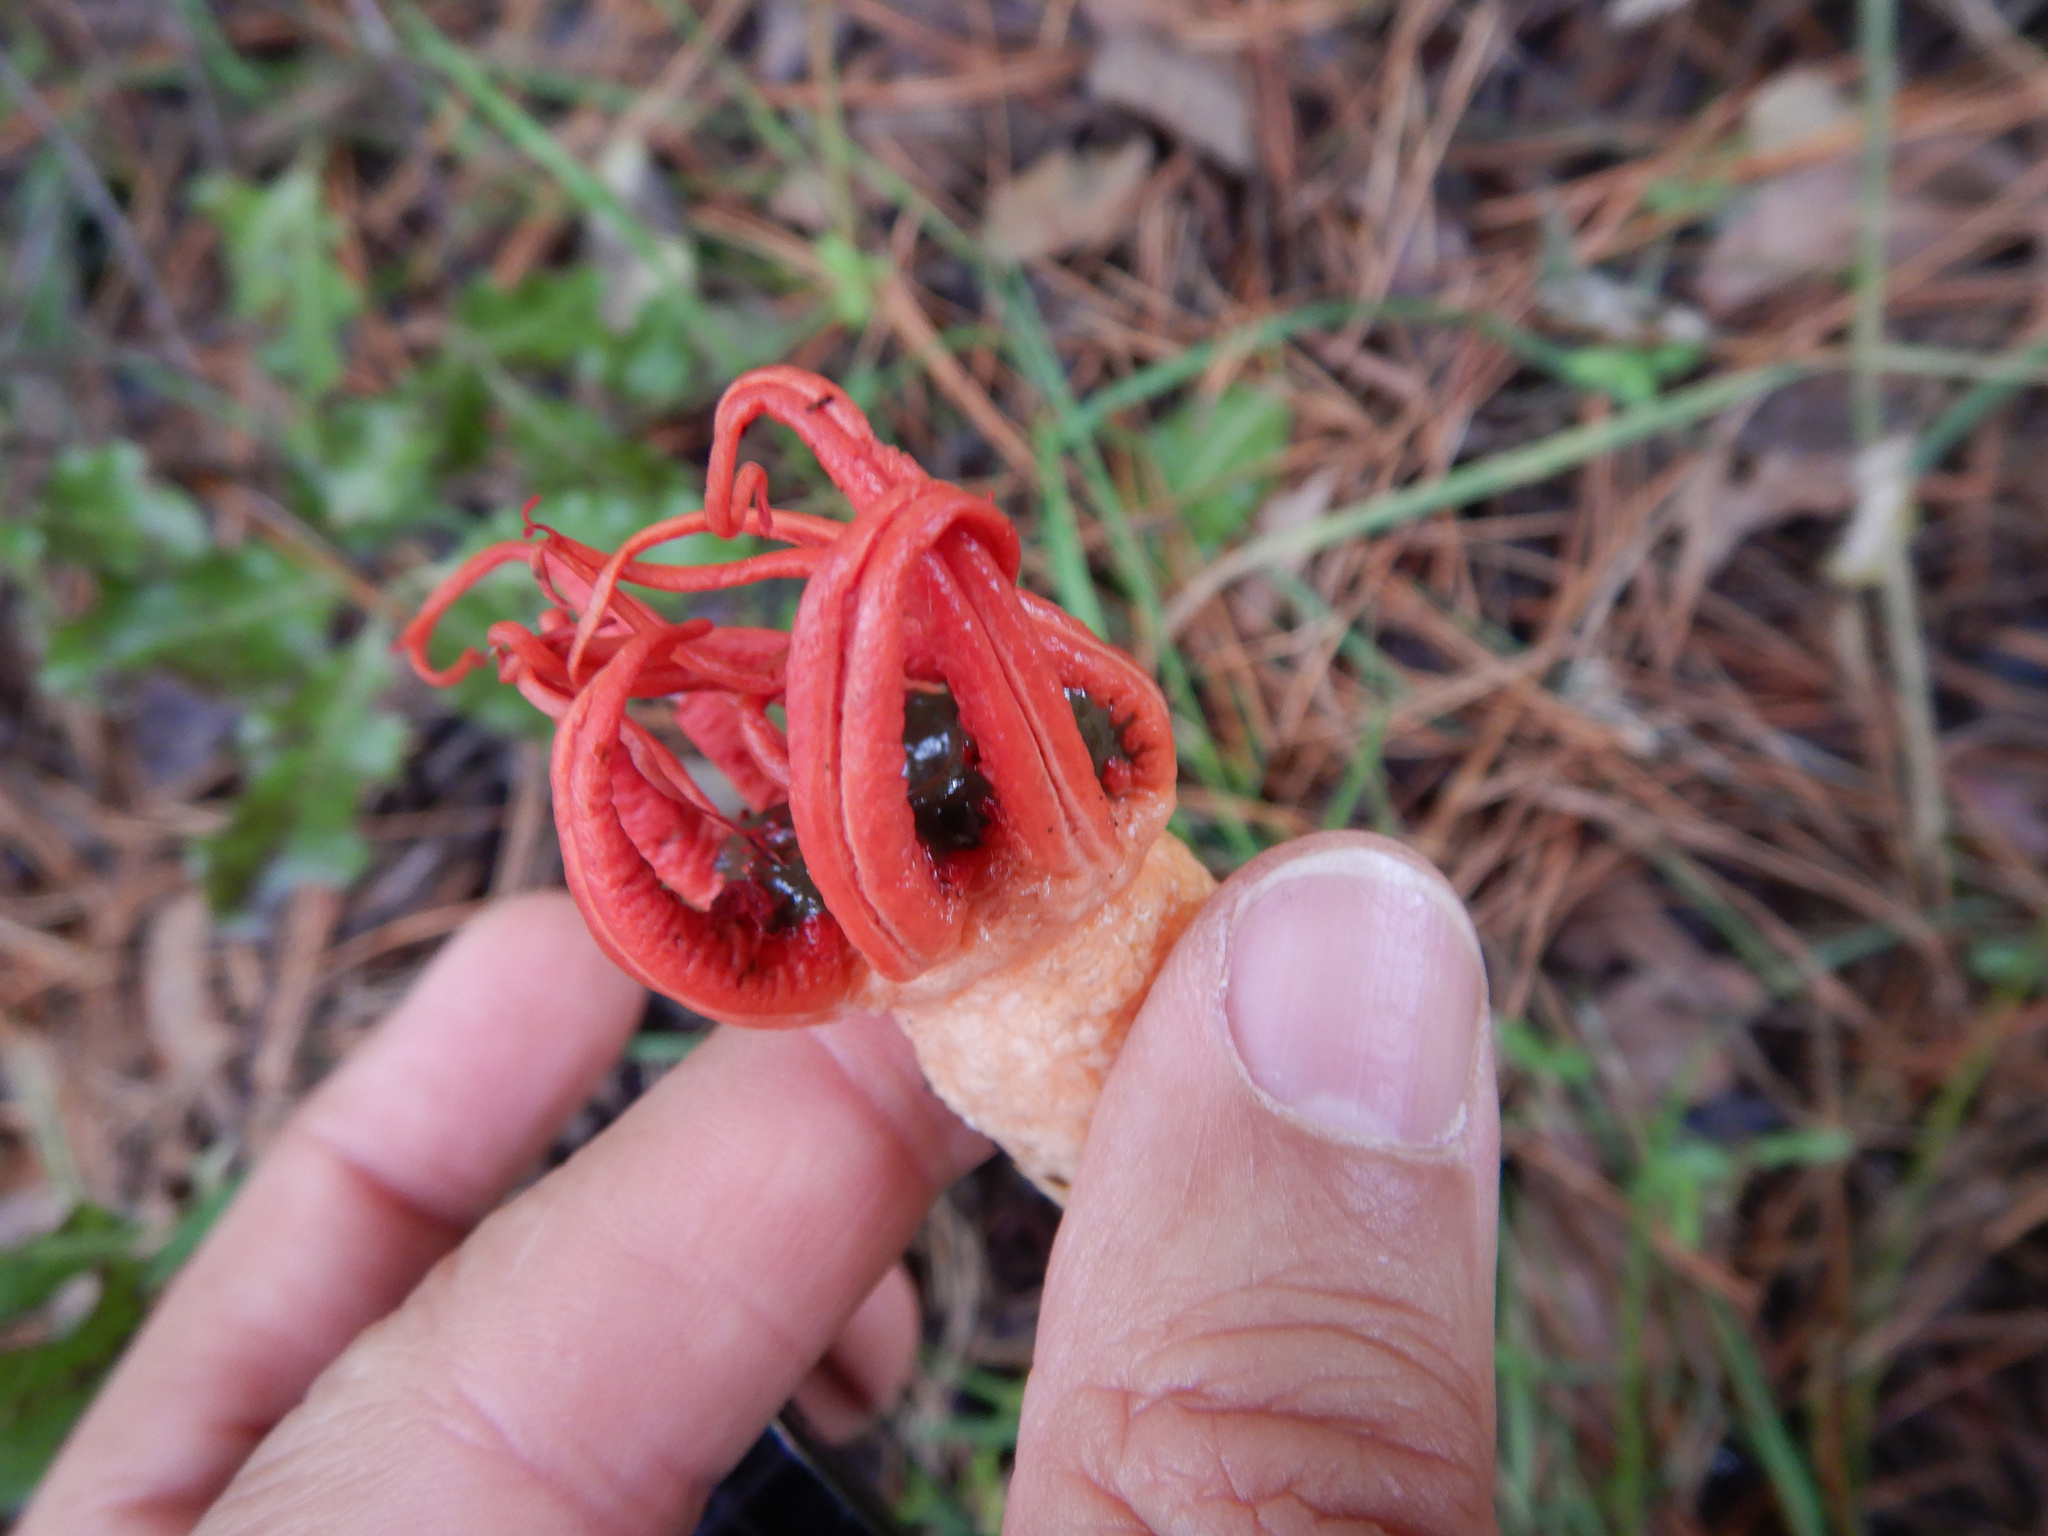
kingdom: Fungi
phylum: Basidiomycota
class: Agaricomycetes
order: Phallales
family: Phallaceae
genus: Aseroe
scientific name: Aseroe rubra
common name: Starfish fungus
